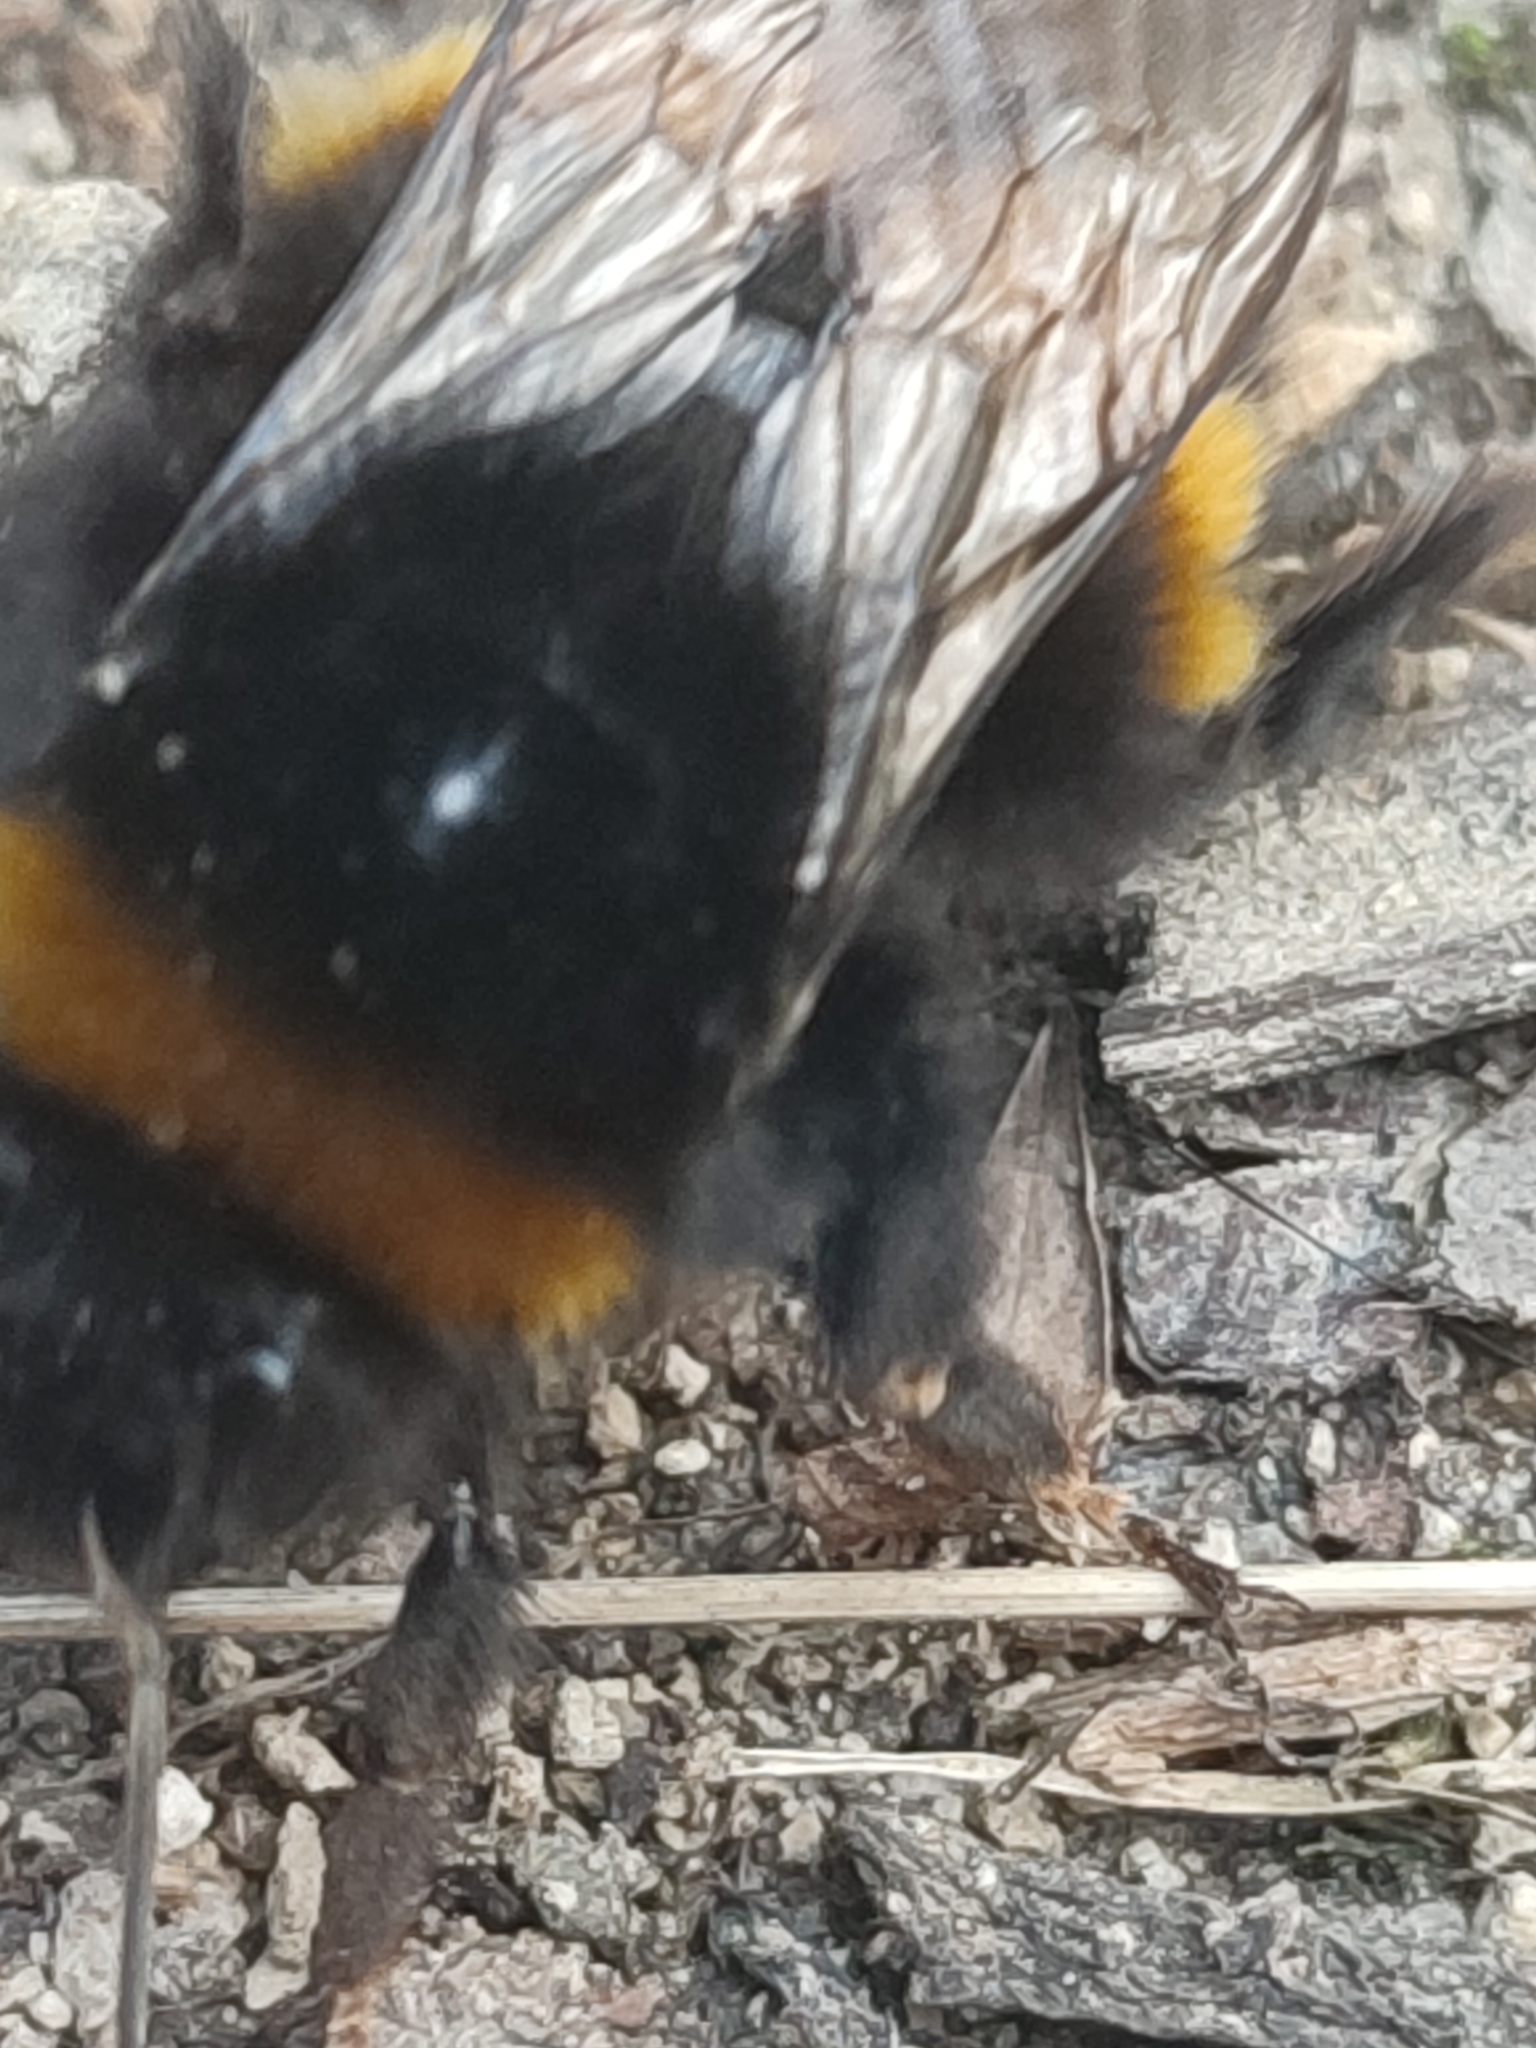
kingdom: Animalia
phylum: Arthropoda
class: Insecta
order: Hymenoptera
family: Apidae
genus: Bombus
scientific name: Bombus terrestris
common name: Buff-tailed bumblebee
